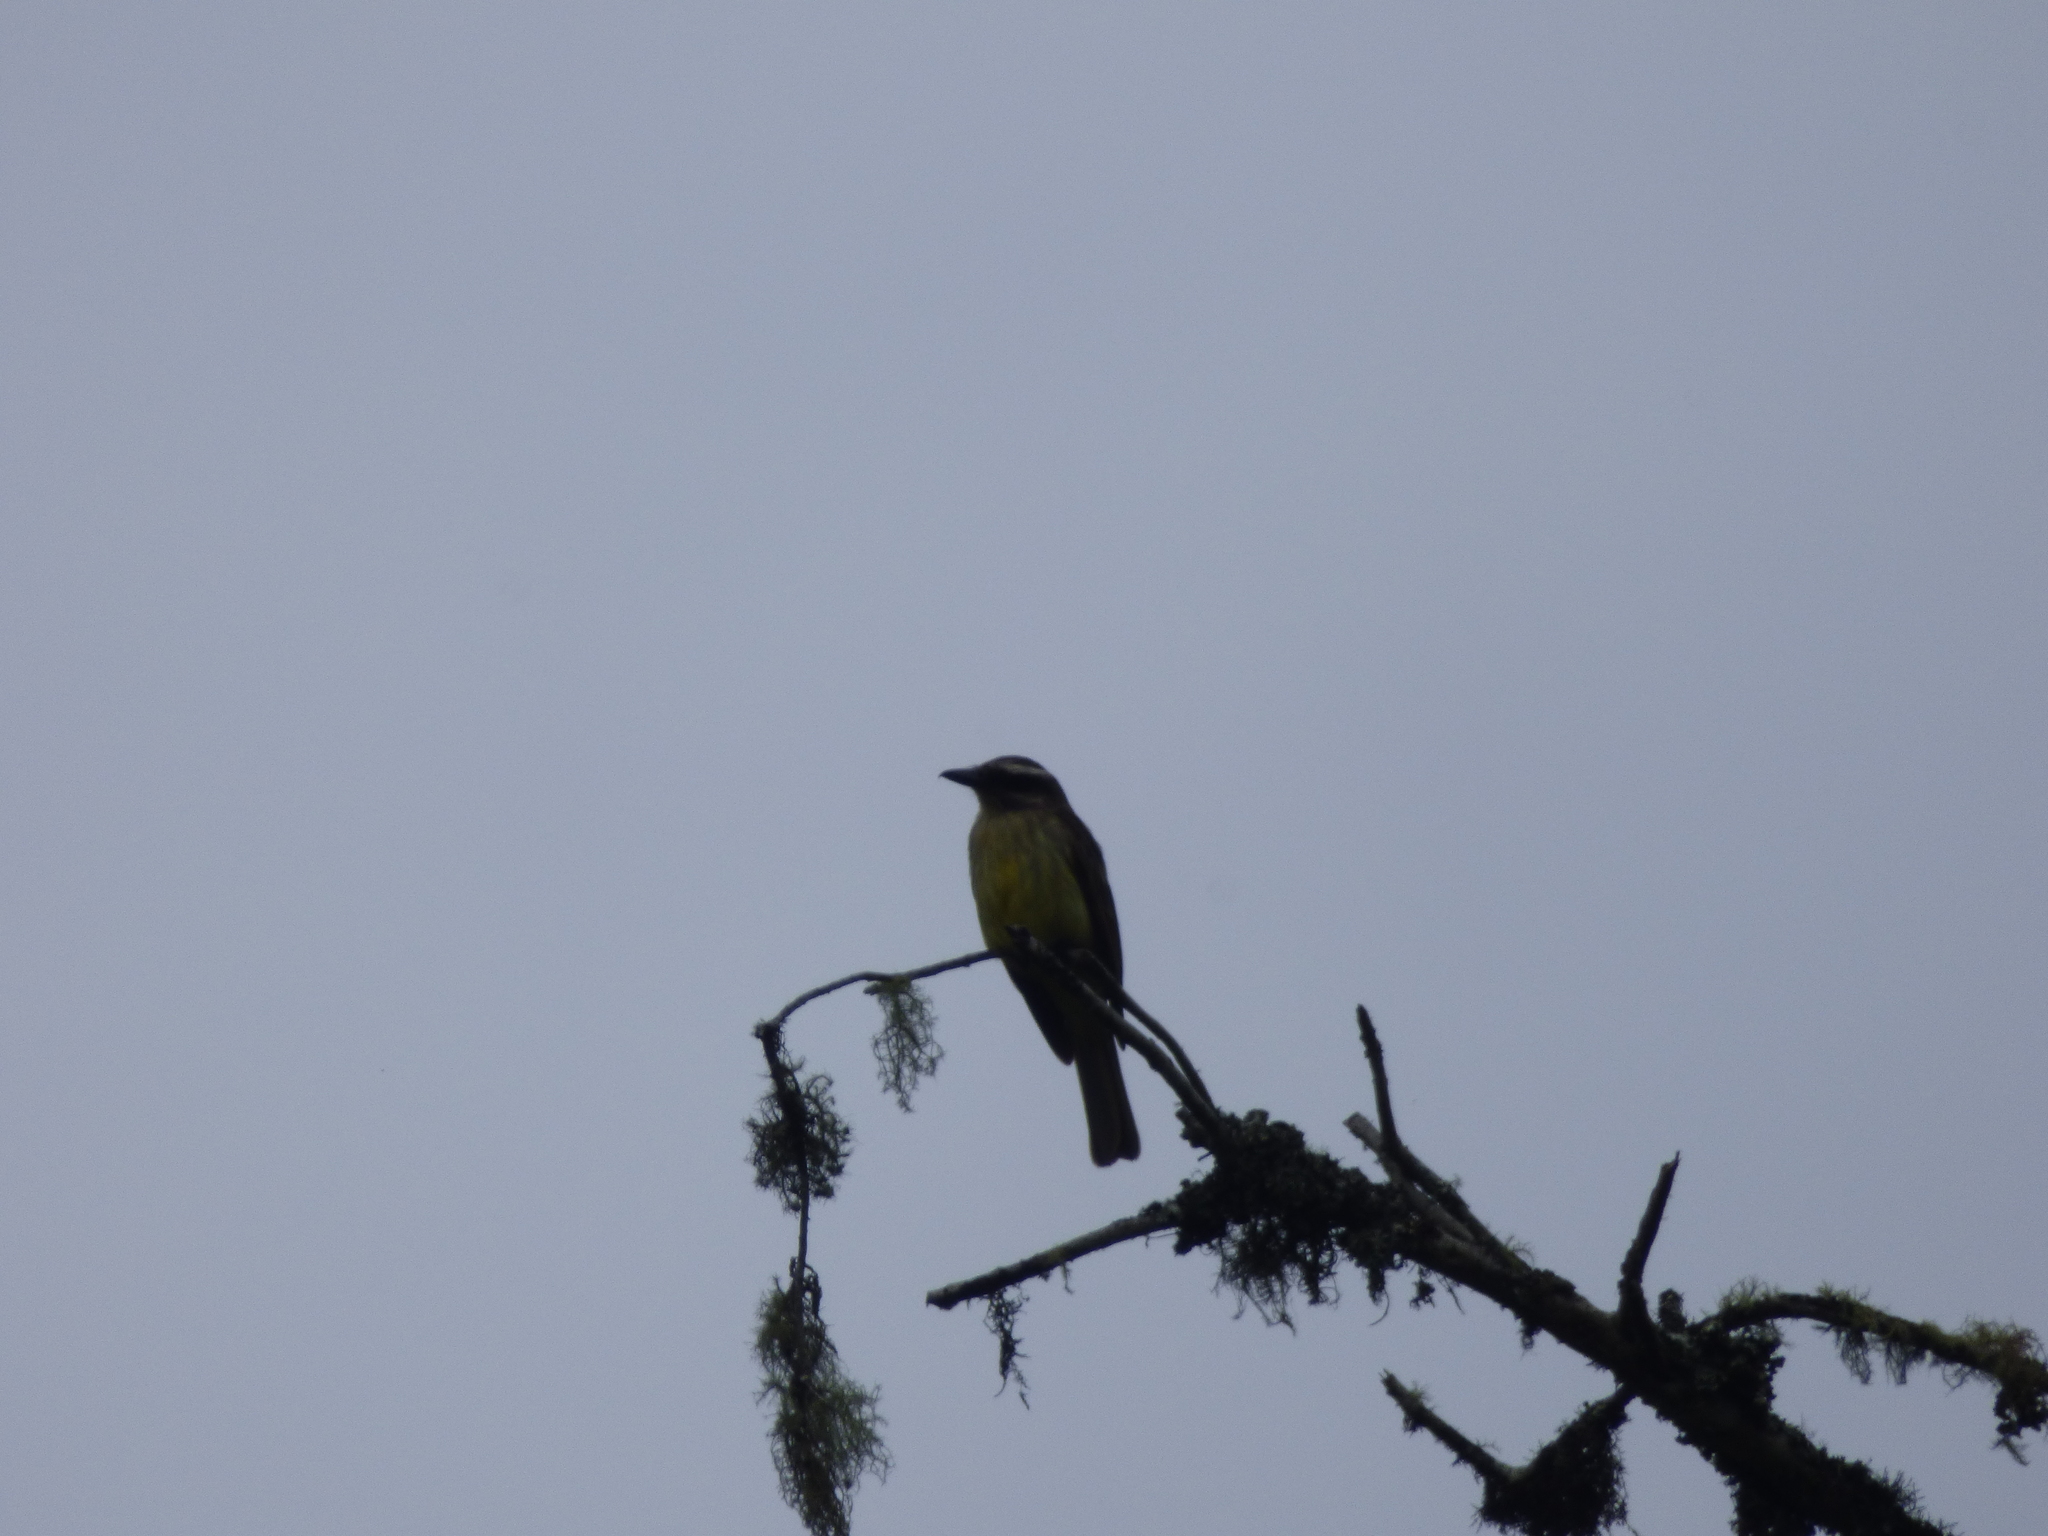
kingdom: Animalia
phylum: Chordata
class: Aves
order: Passeriformes
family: Tyrannidae
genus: Myiodynastes
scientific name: Myiodynastes hemichrysus
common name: Golden-bellied flycatcher
